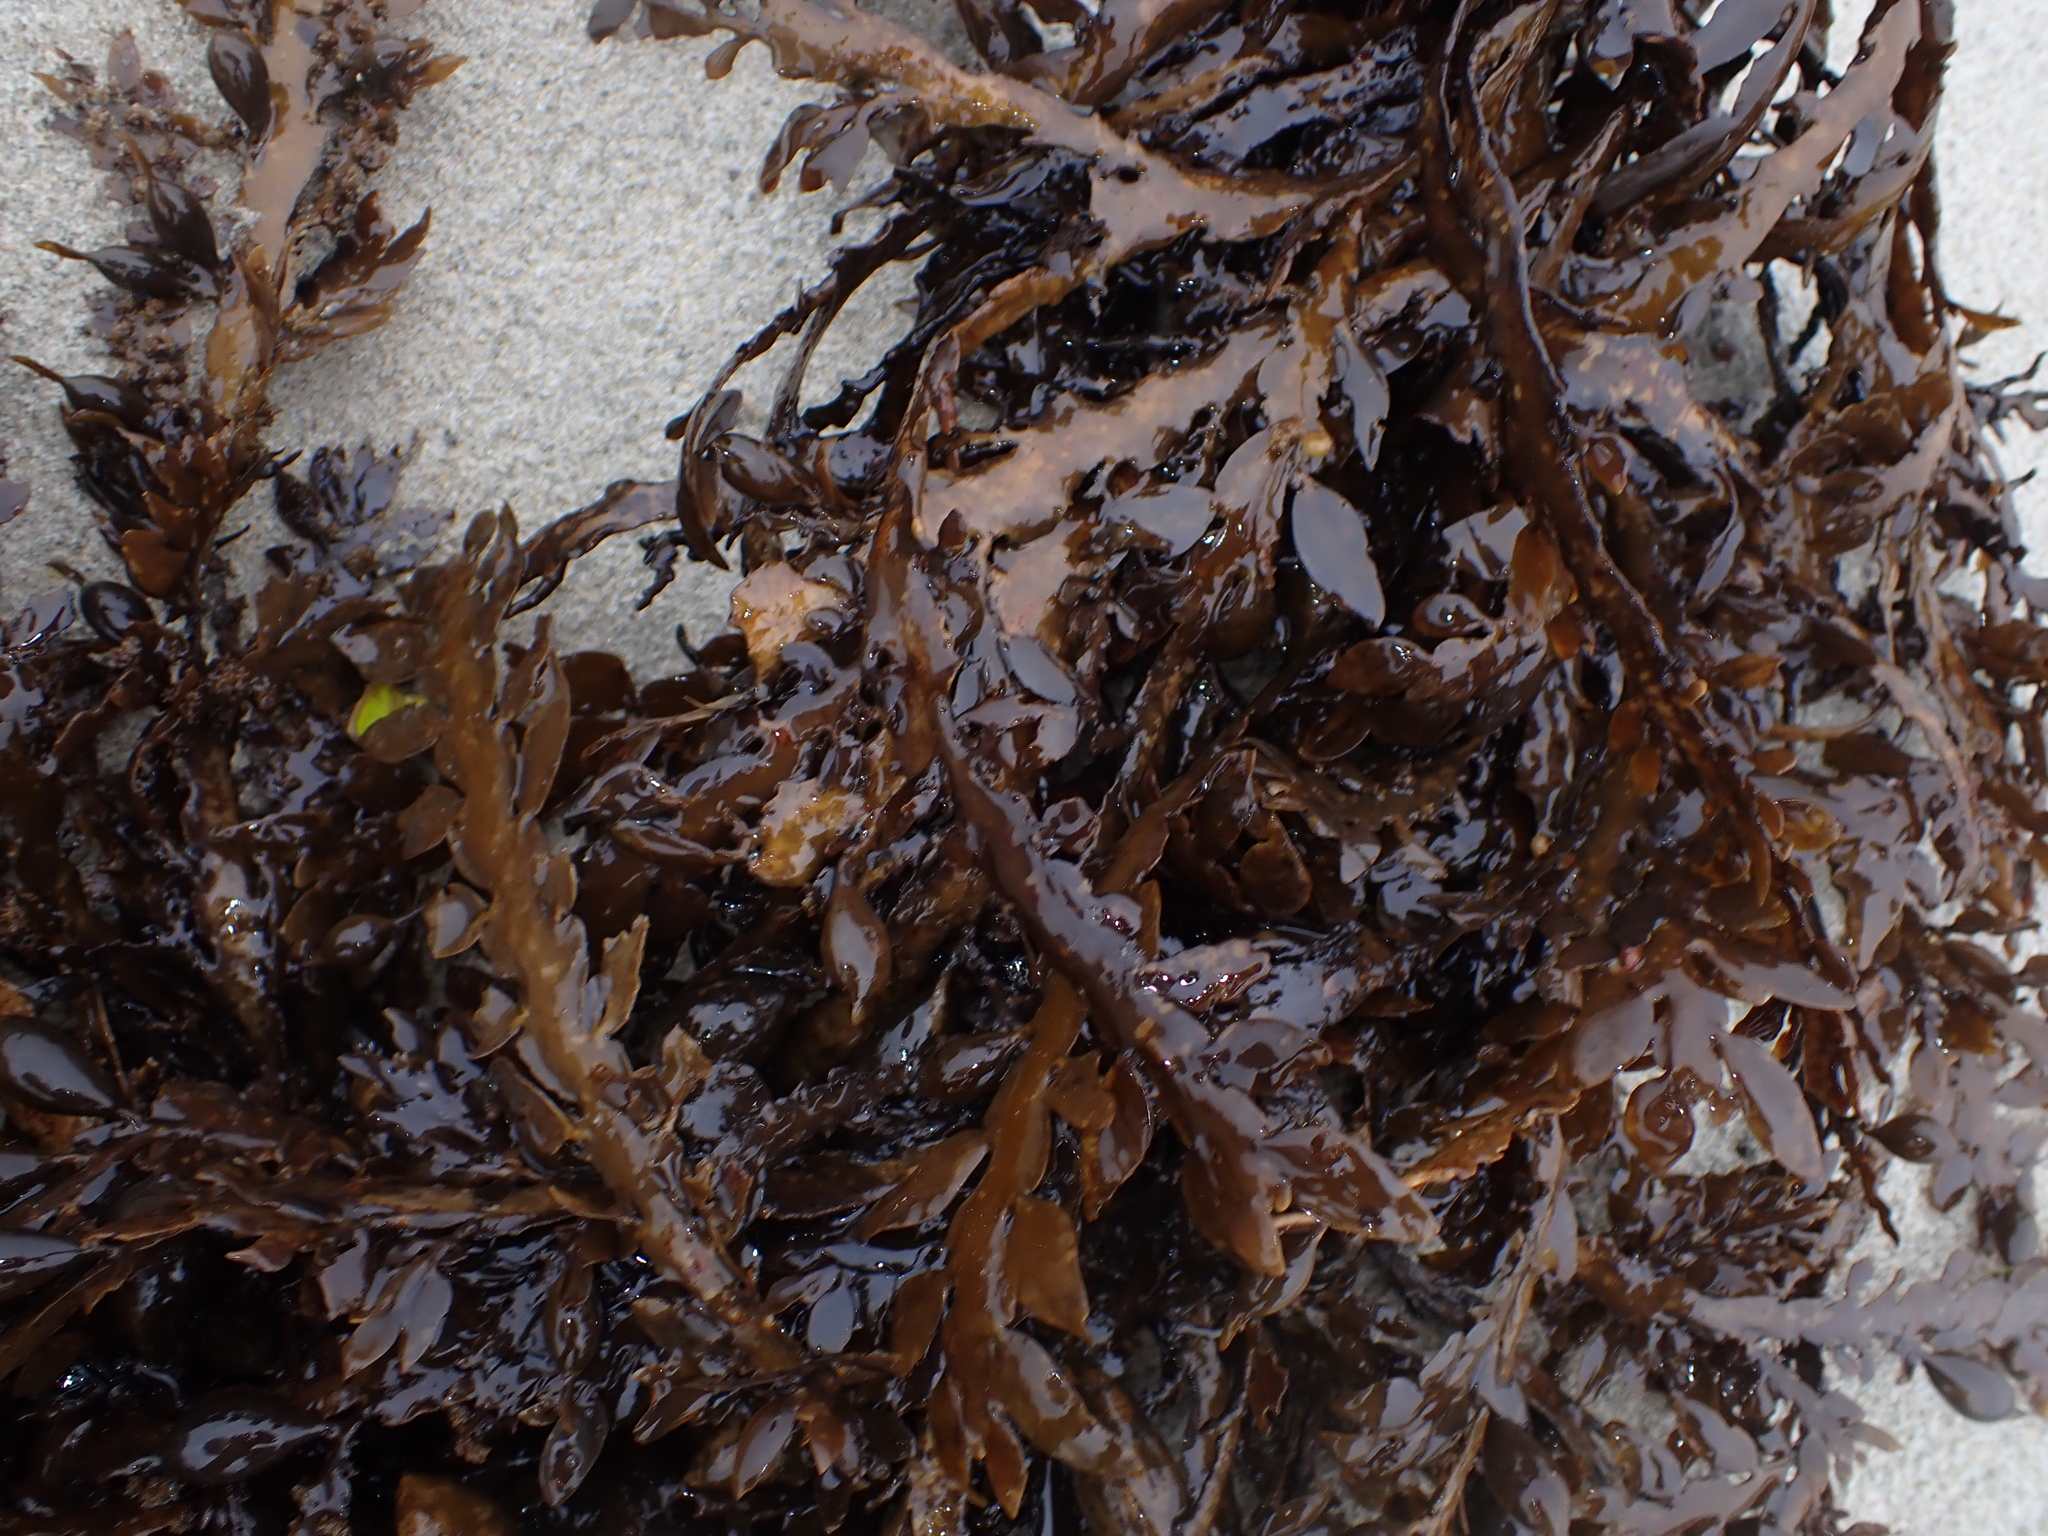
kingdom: Chromista
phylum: Ochrophyta
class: Phaeophyceae
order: Fucales
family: Sargassaceae
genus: Carpophyllum
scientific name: Carpophyllum maschalocarpum
